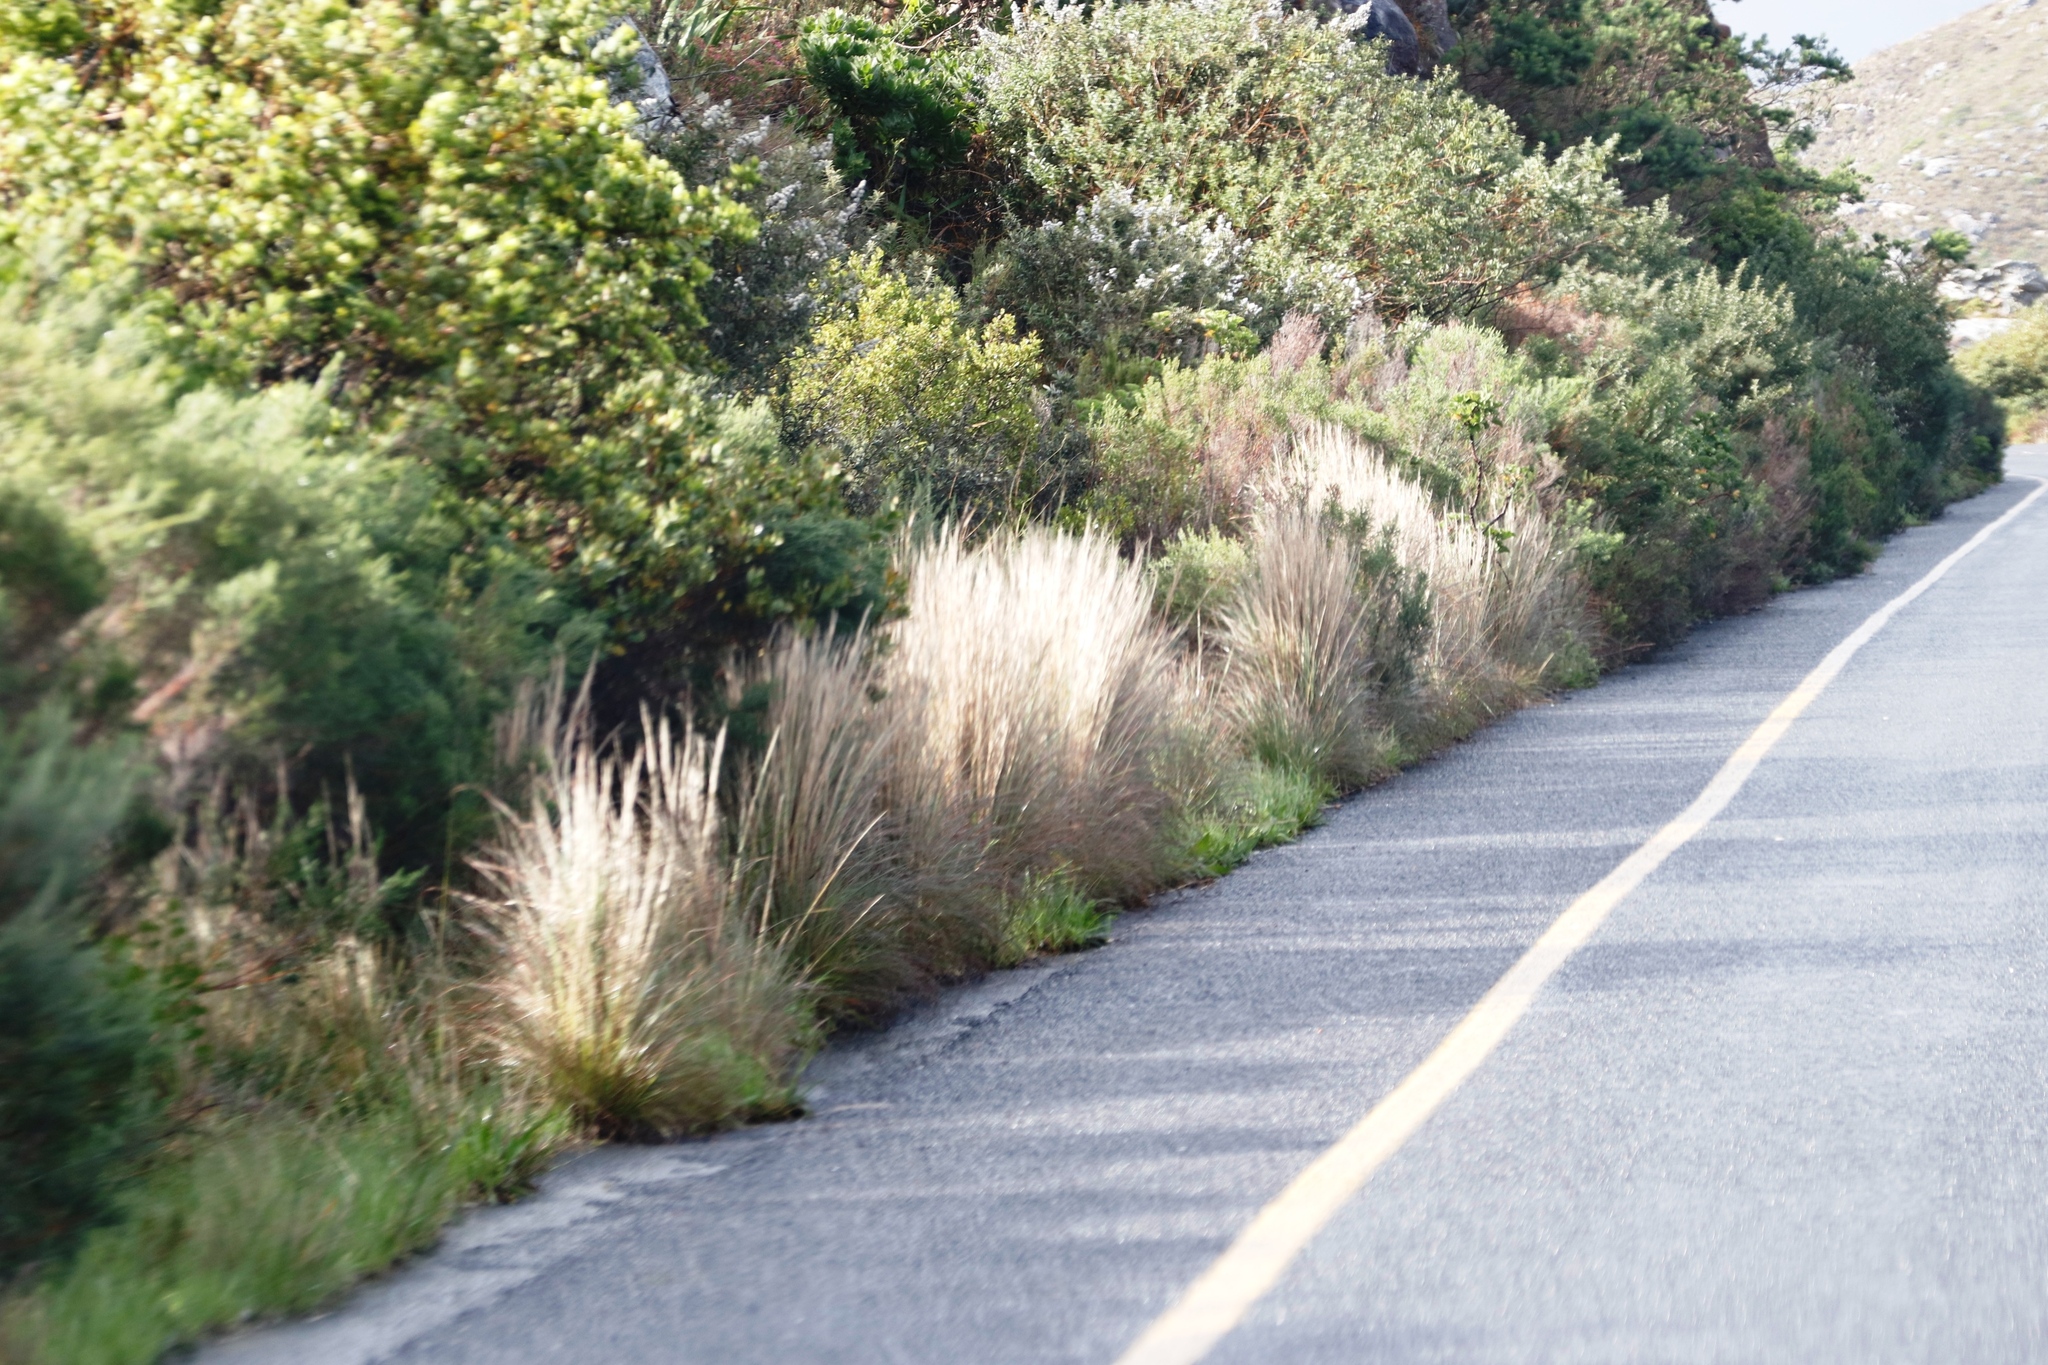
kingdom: Plantae
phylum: Tracheophyta
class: Liliopsida
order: Poales
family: Poaceae
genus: Hyparrhenia
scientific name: Hyparrhenia hirta
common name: Thatching grass
